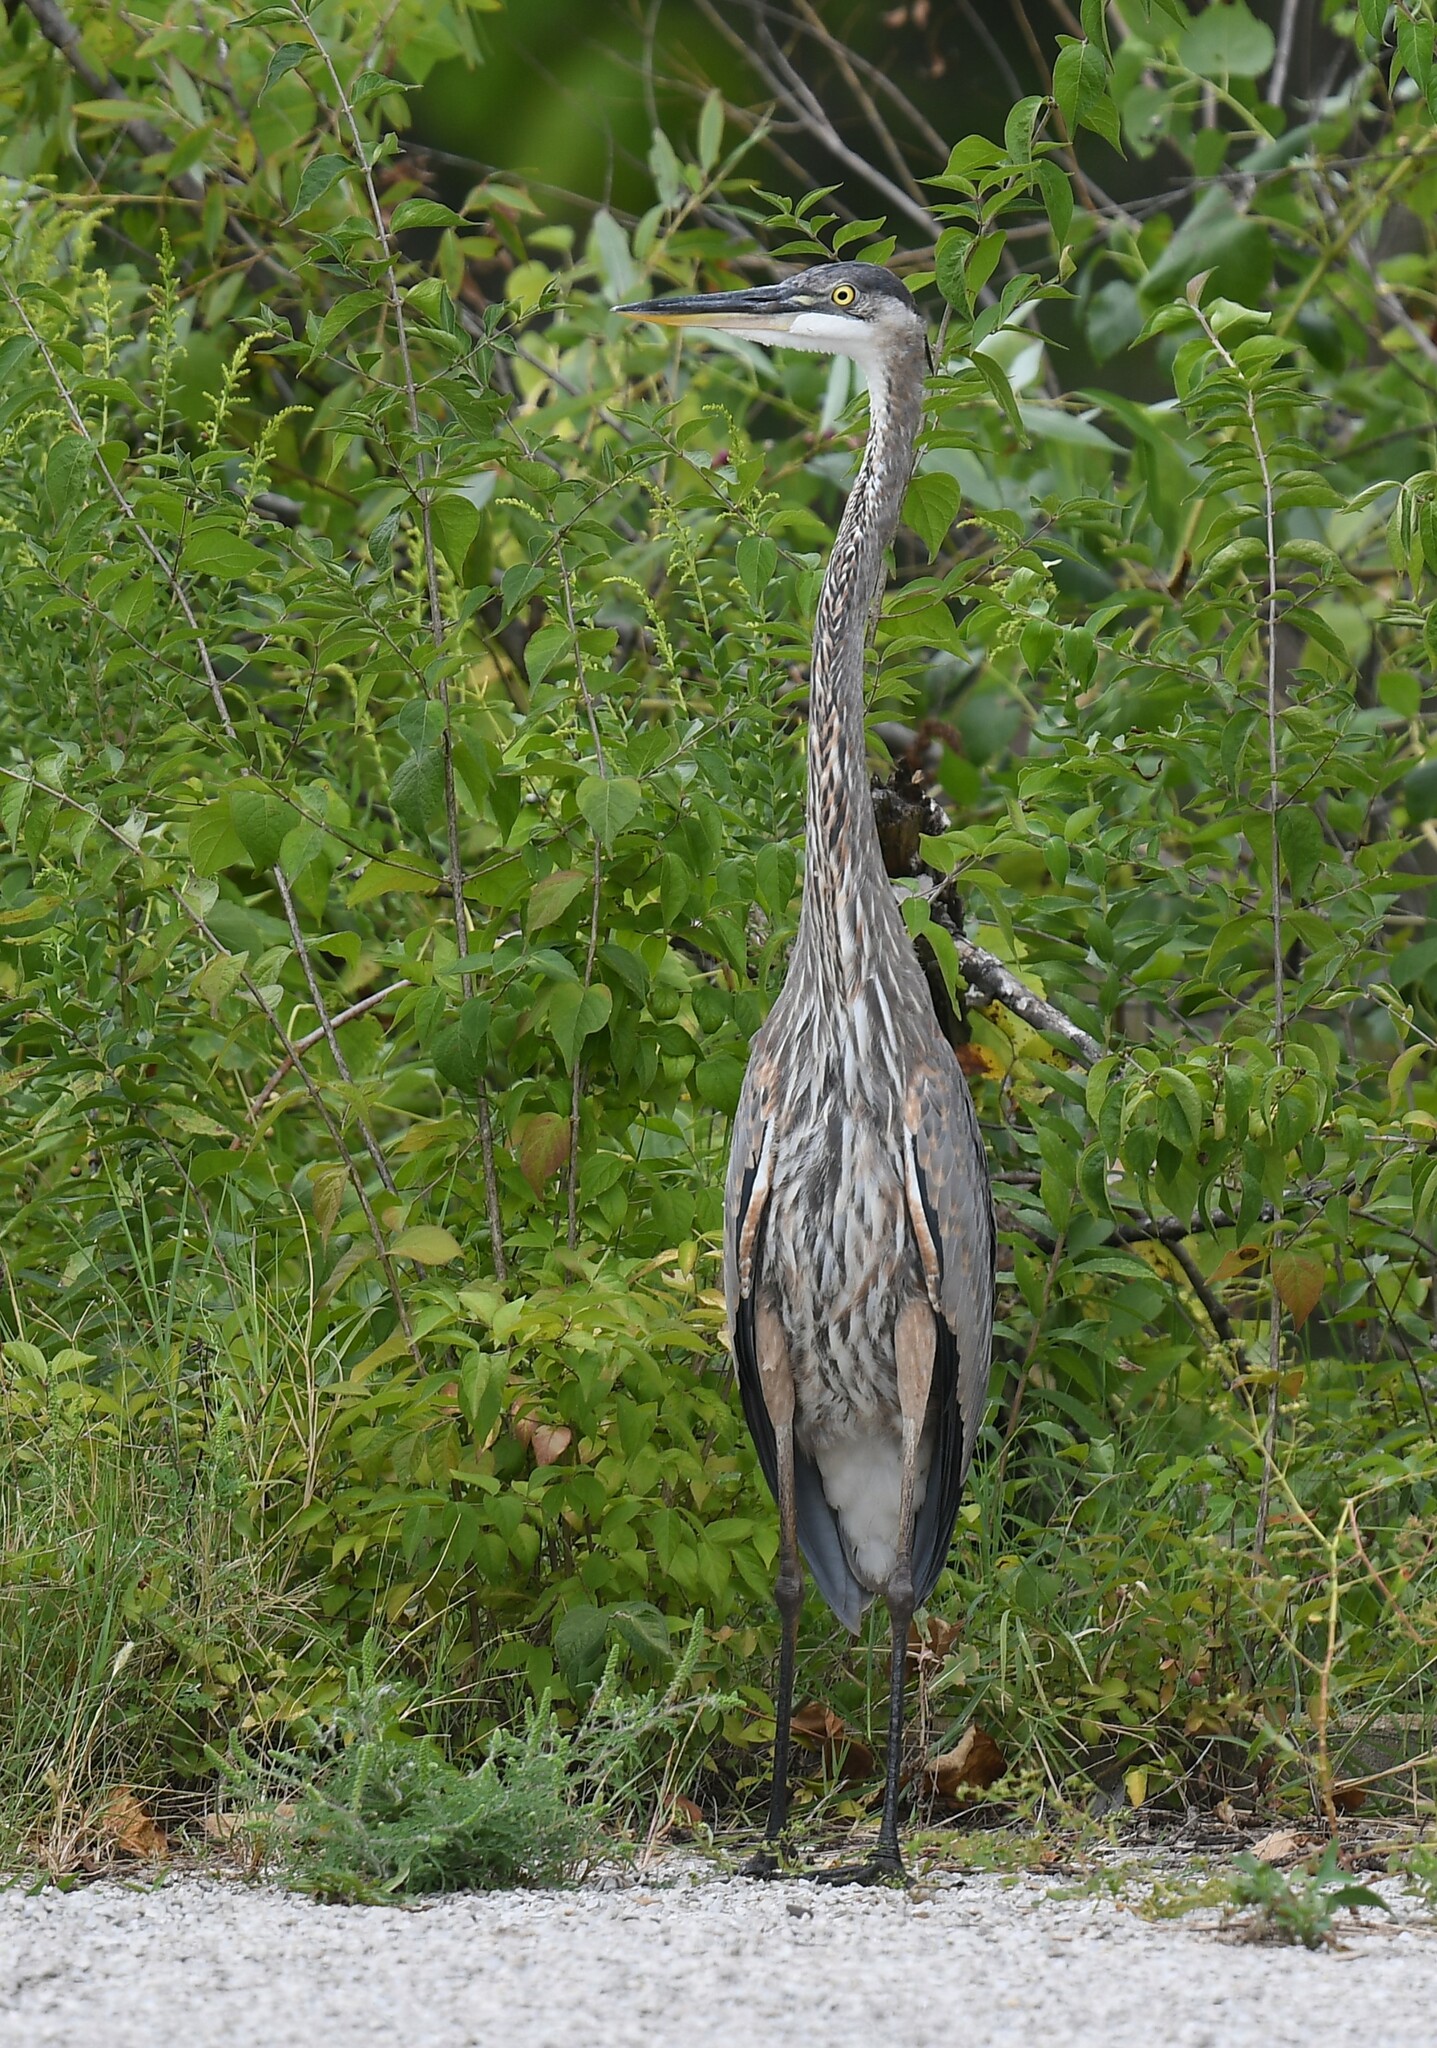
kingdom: Animalia
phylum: Chordata
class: Aves
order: Pelecaniformes
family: Ardeidae
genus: Ardea
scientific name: Ardea herodias
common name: Great blue heron
